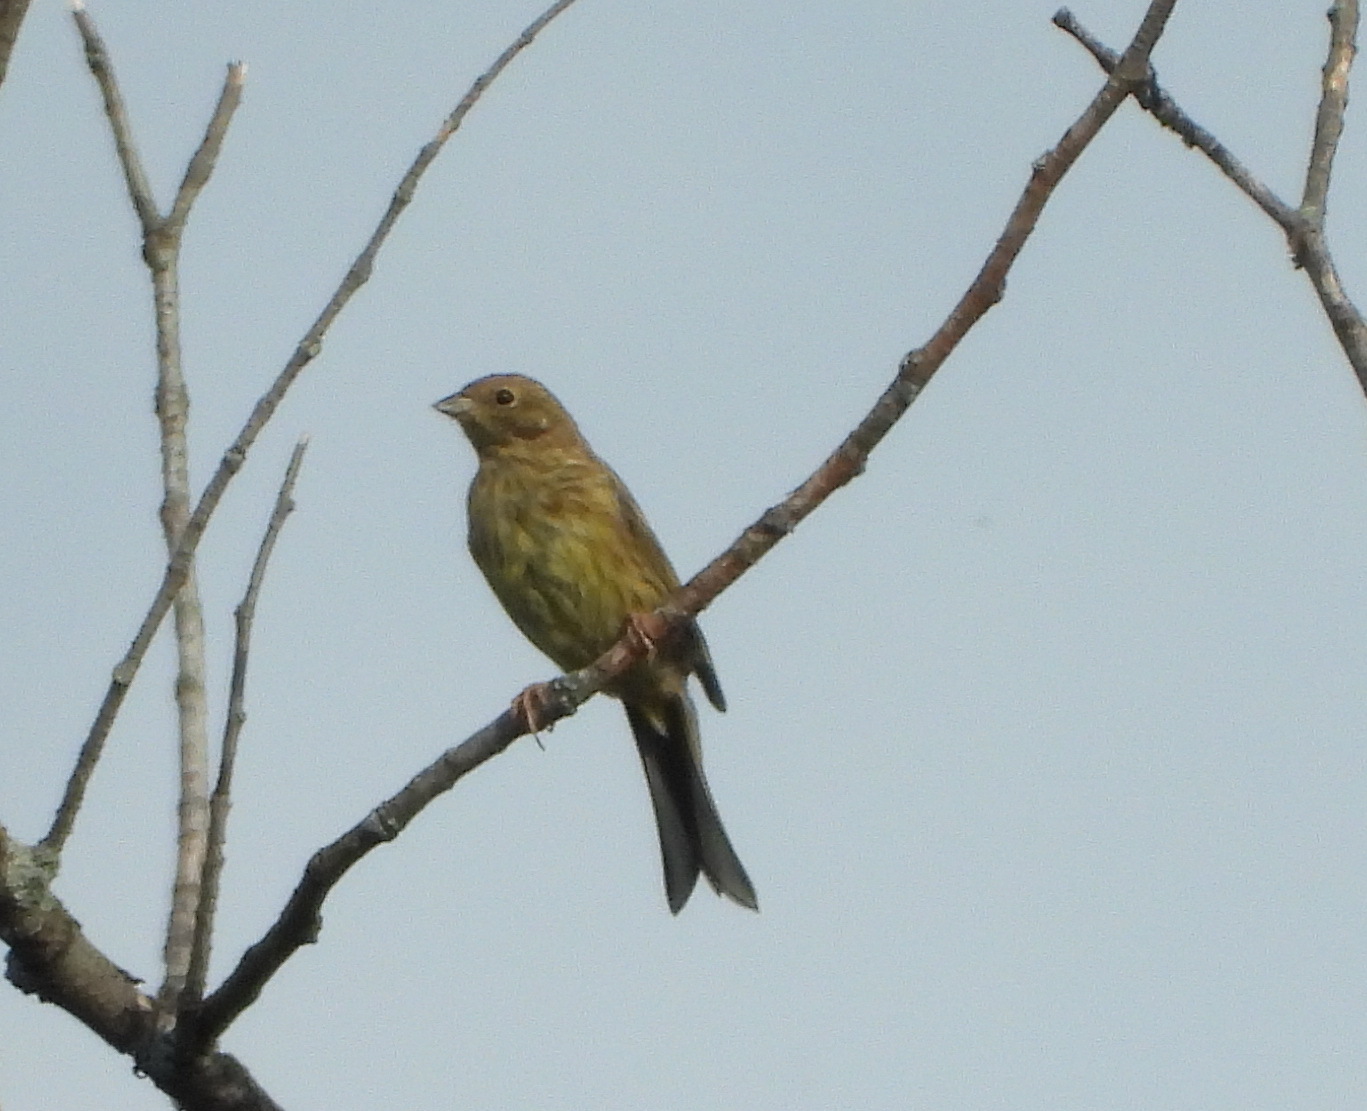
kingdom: Animalia
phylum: Chordata
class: Aves
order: Passeriformes
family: Emberizidae
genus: Emberiza
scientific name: Emberiza citrinella
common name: Yellowhammer
